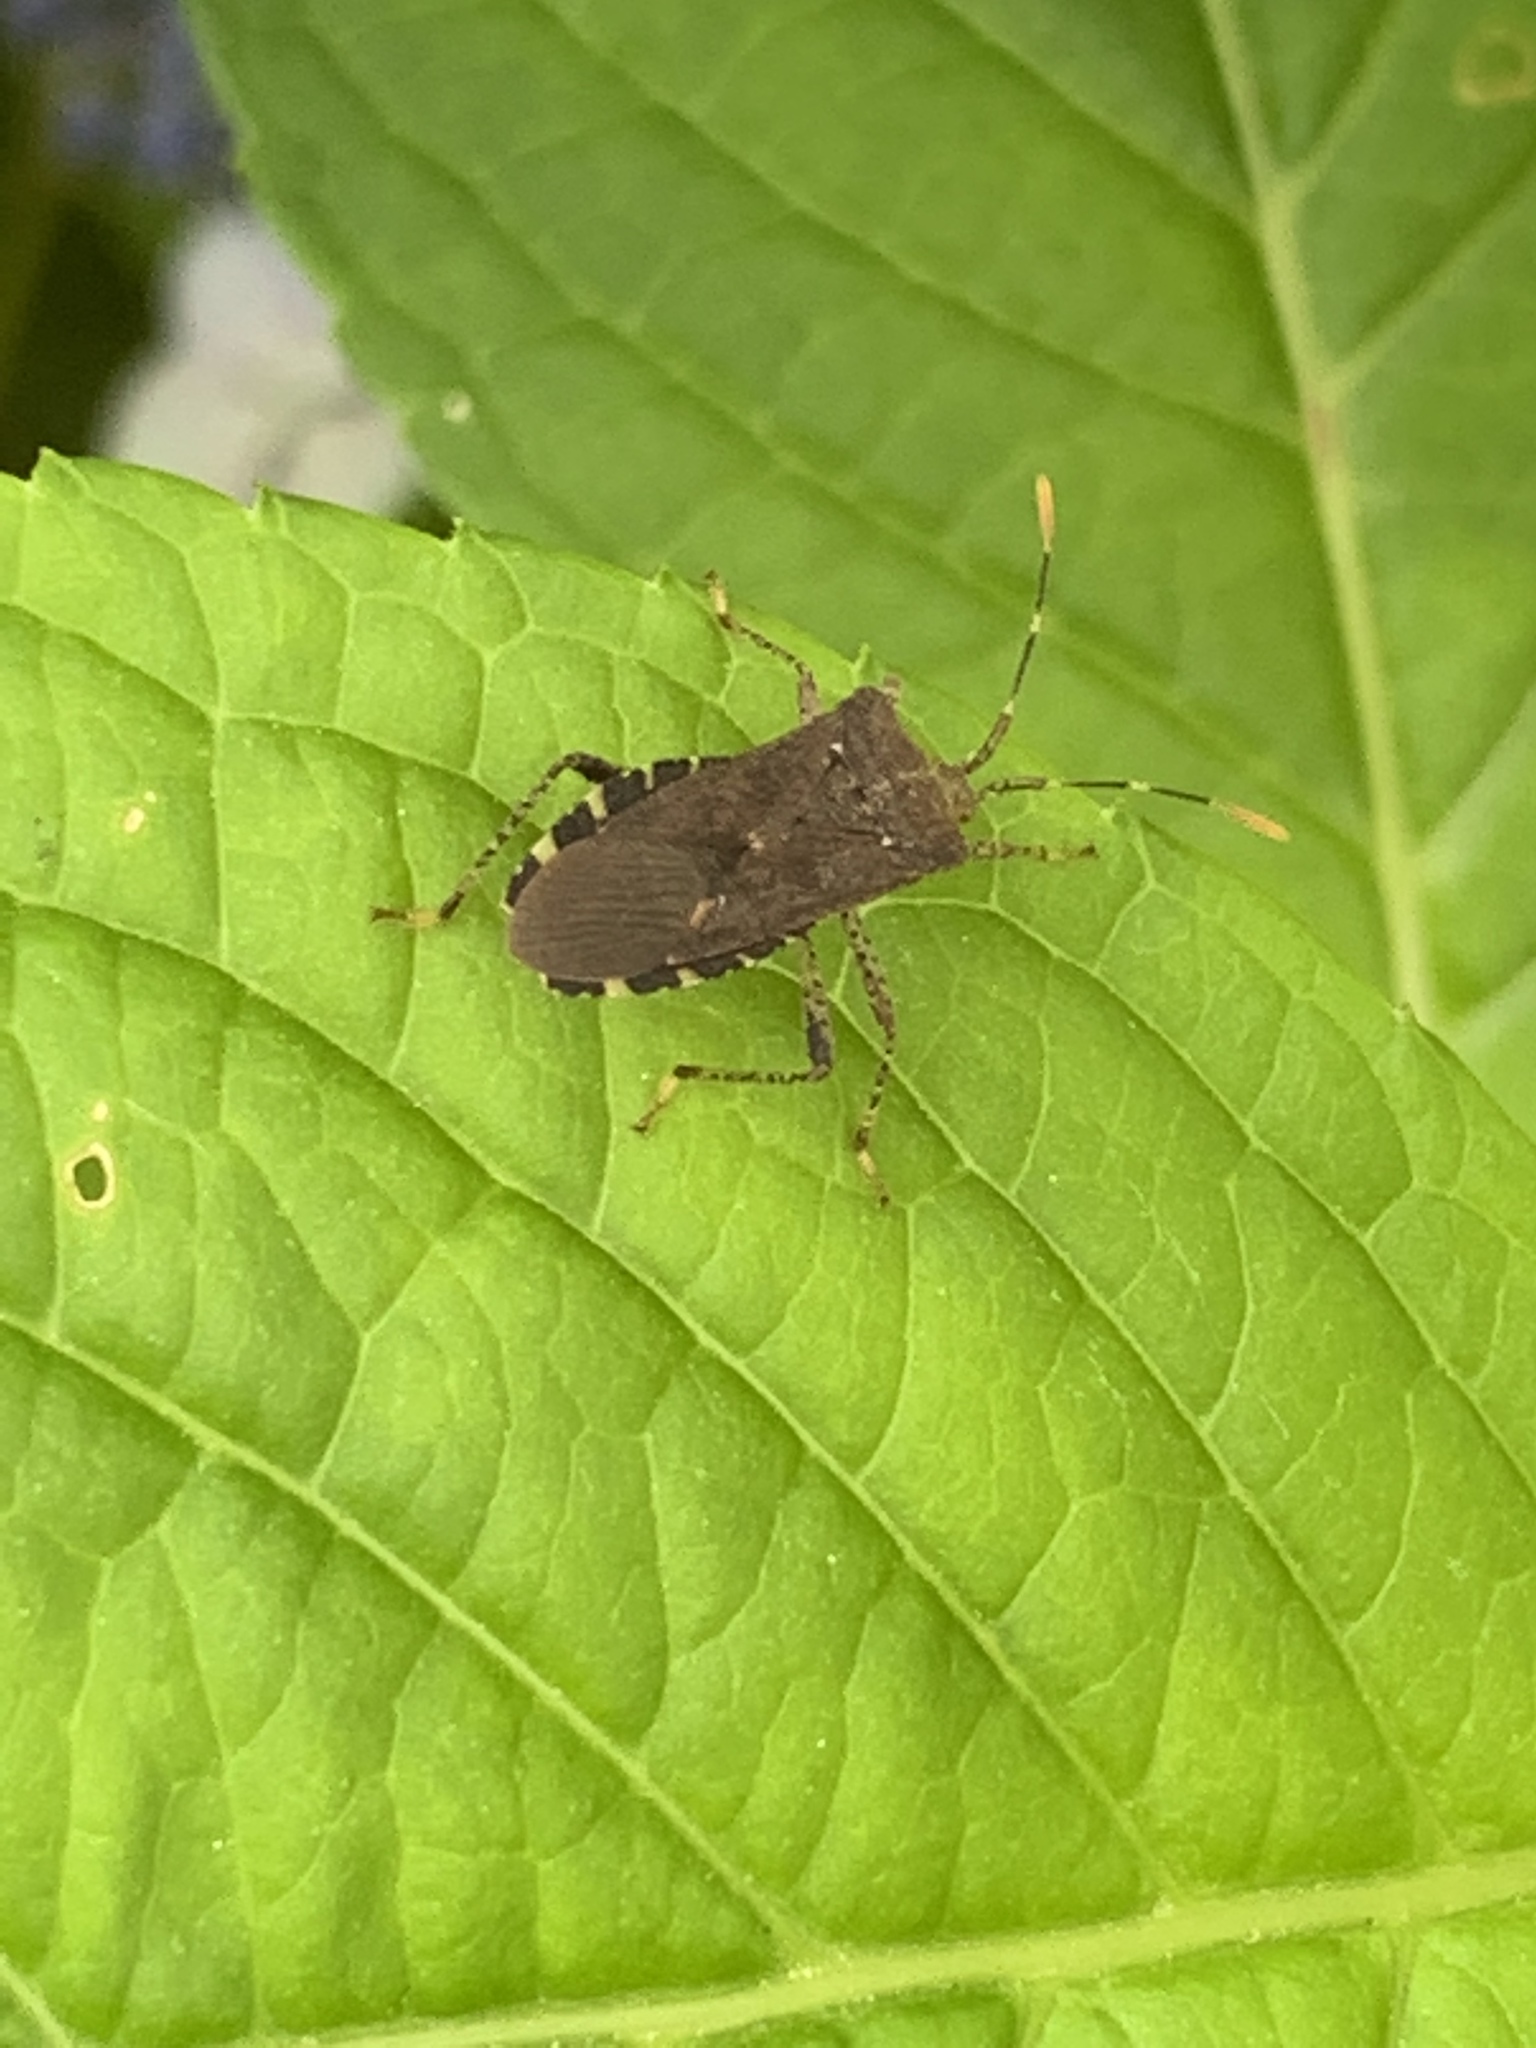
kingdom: Animalia
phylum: Arthropoda
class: Insecta
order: Hemiptera
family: Coreidae
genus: Anasa
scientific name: Anasa armigera
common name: Horned squash bug
